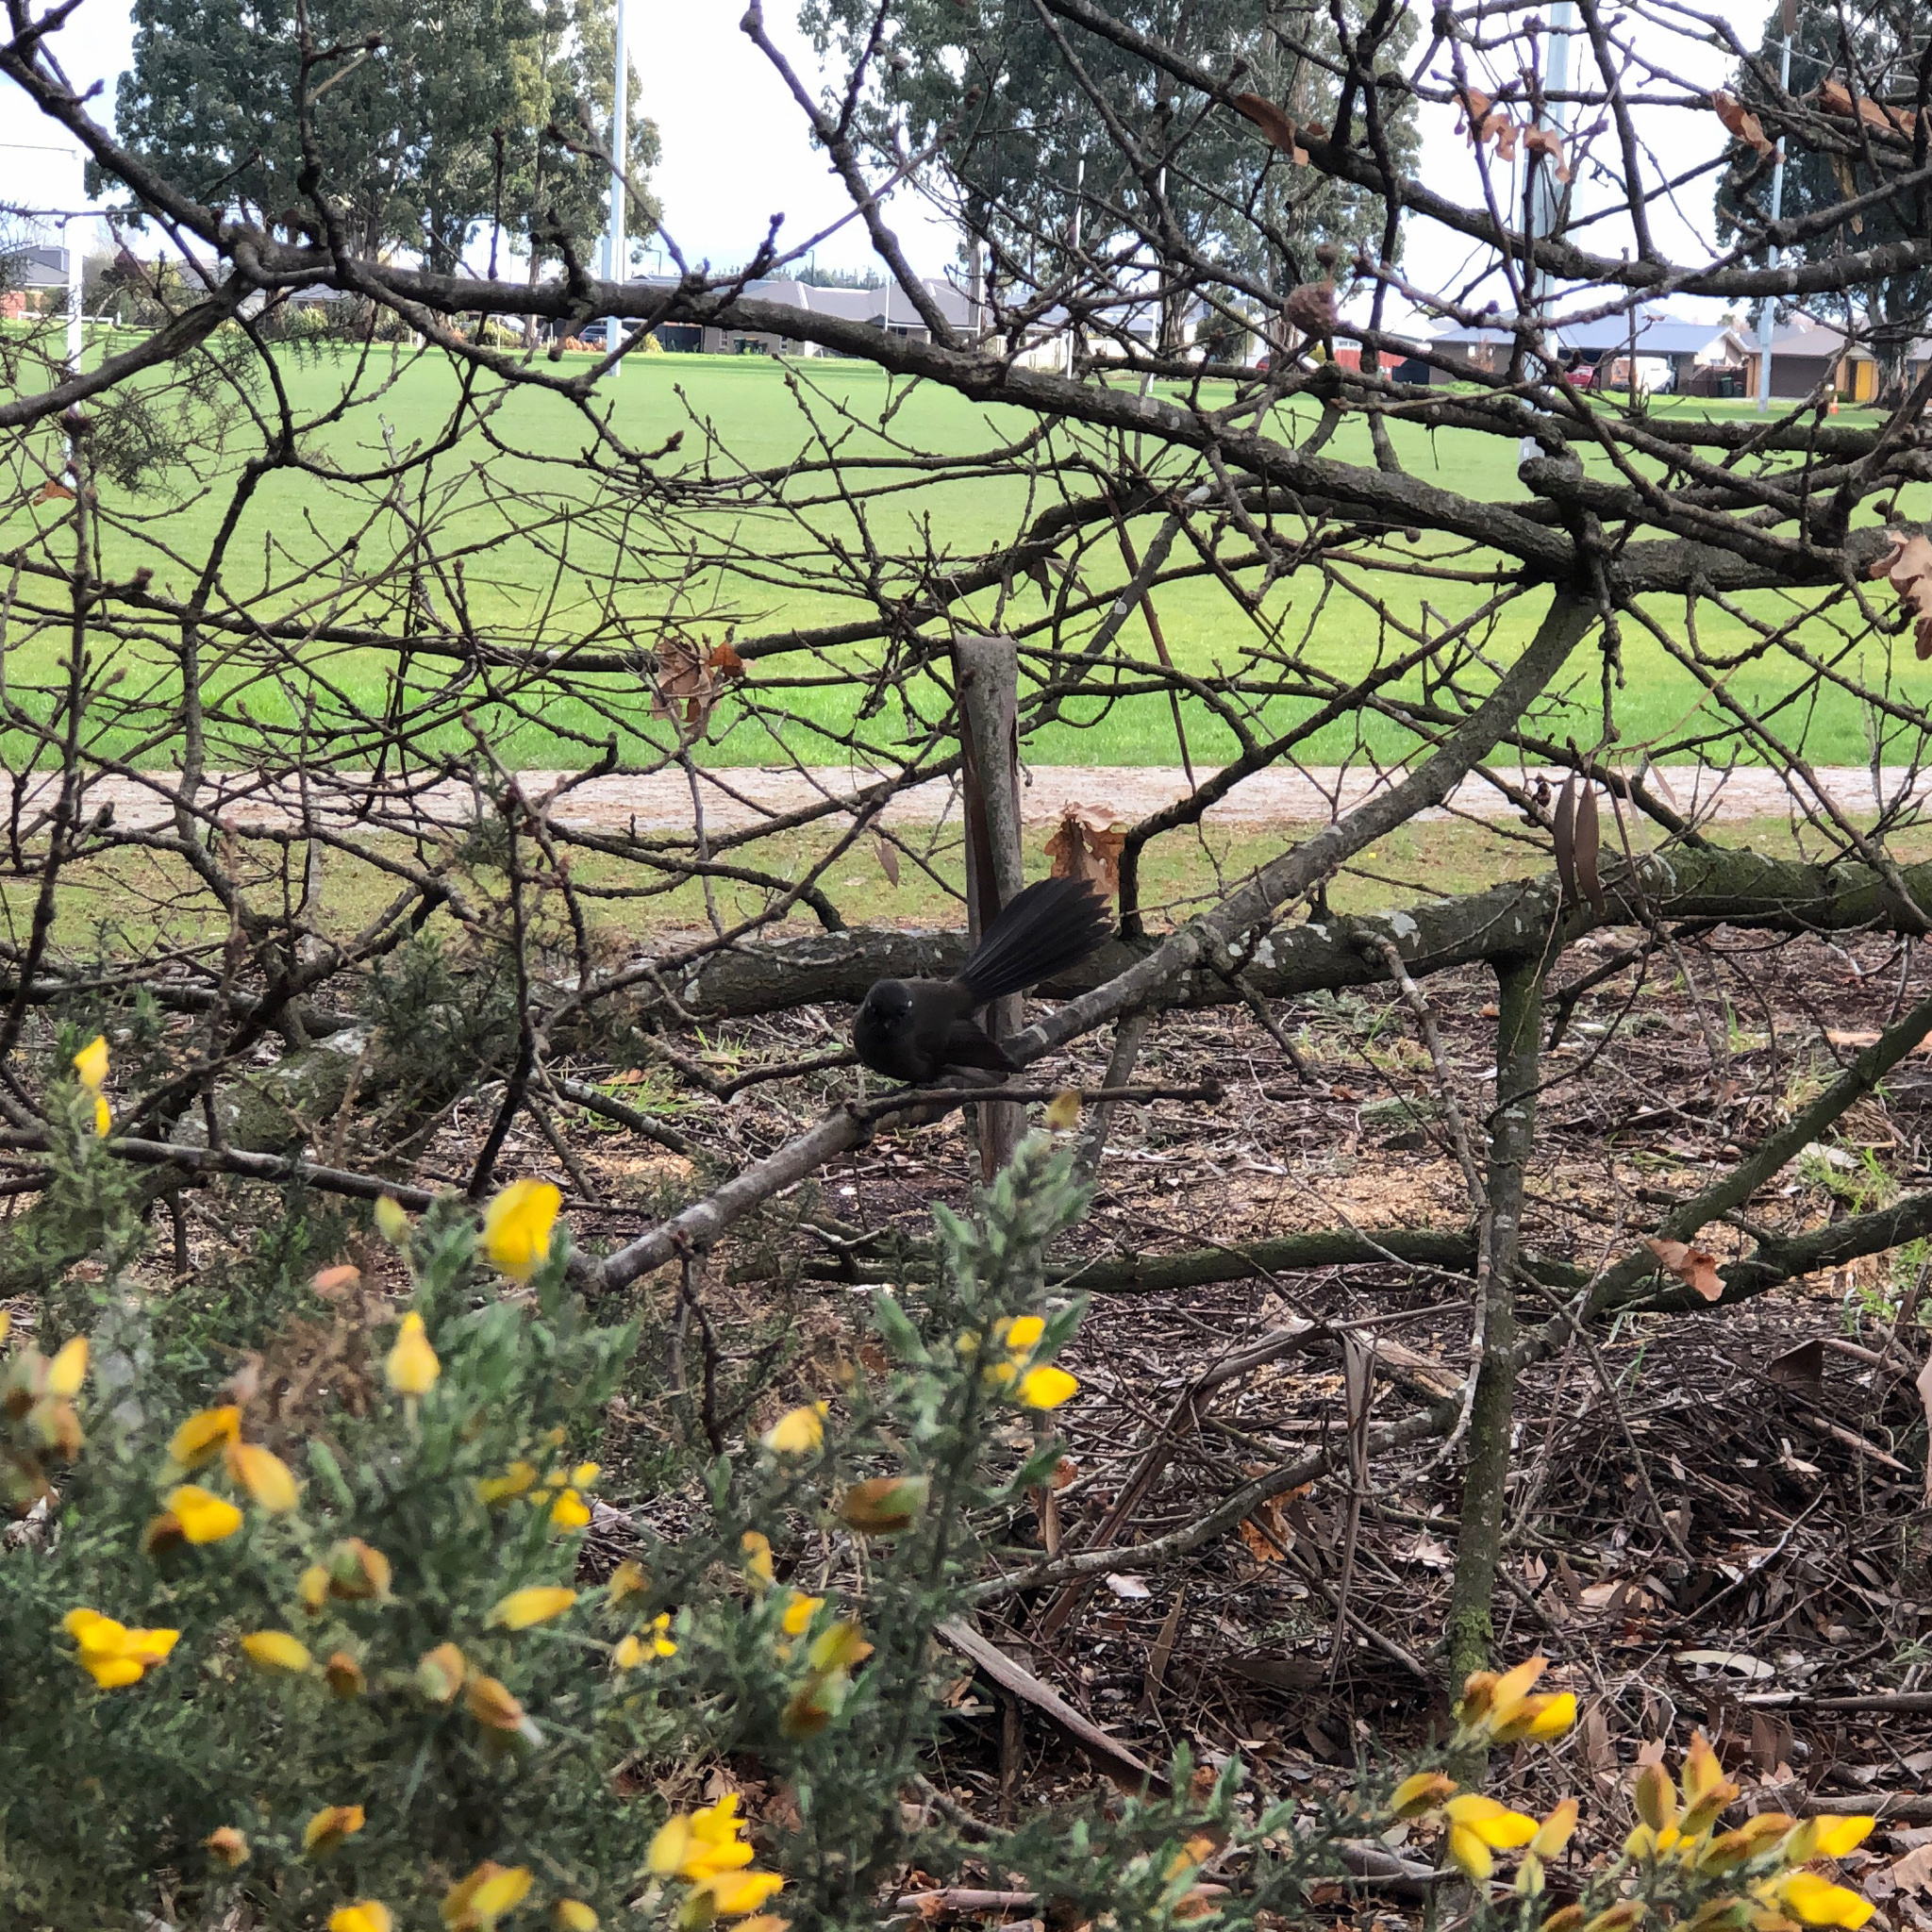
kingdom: Animalia
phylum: Chordata
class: Aves
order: Passeriformes
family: Rhipiduridae
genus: Rhipidura
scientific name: Rhipidura fuliginosa
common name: New zealand fantail
